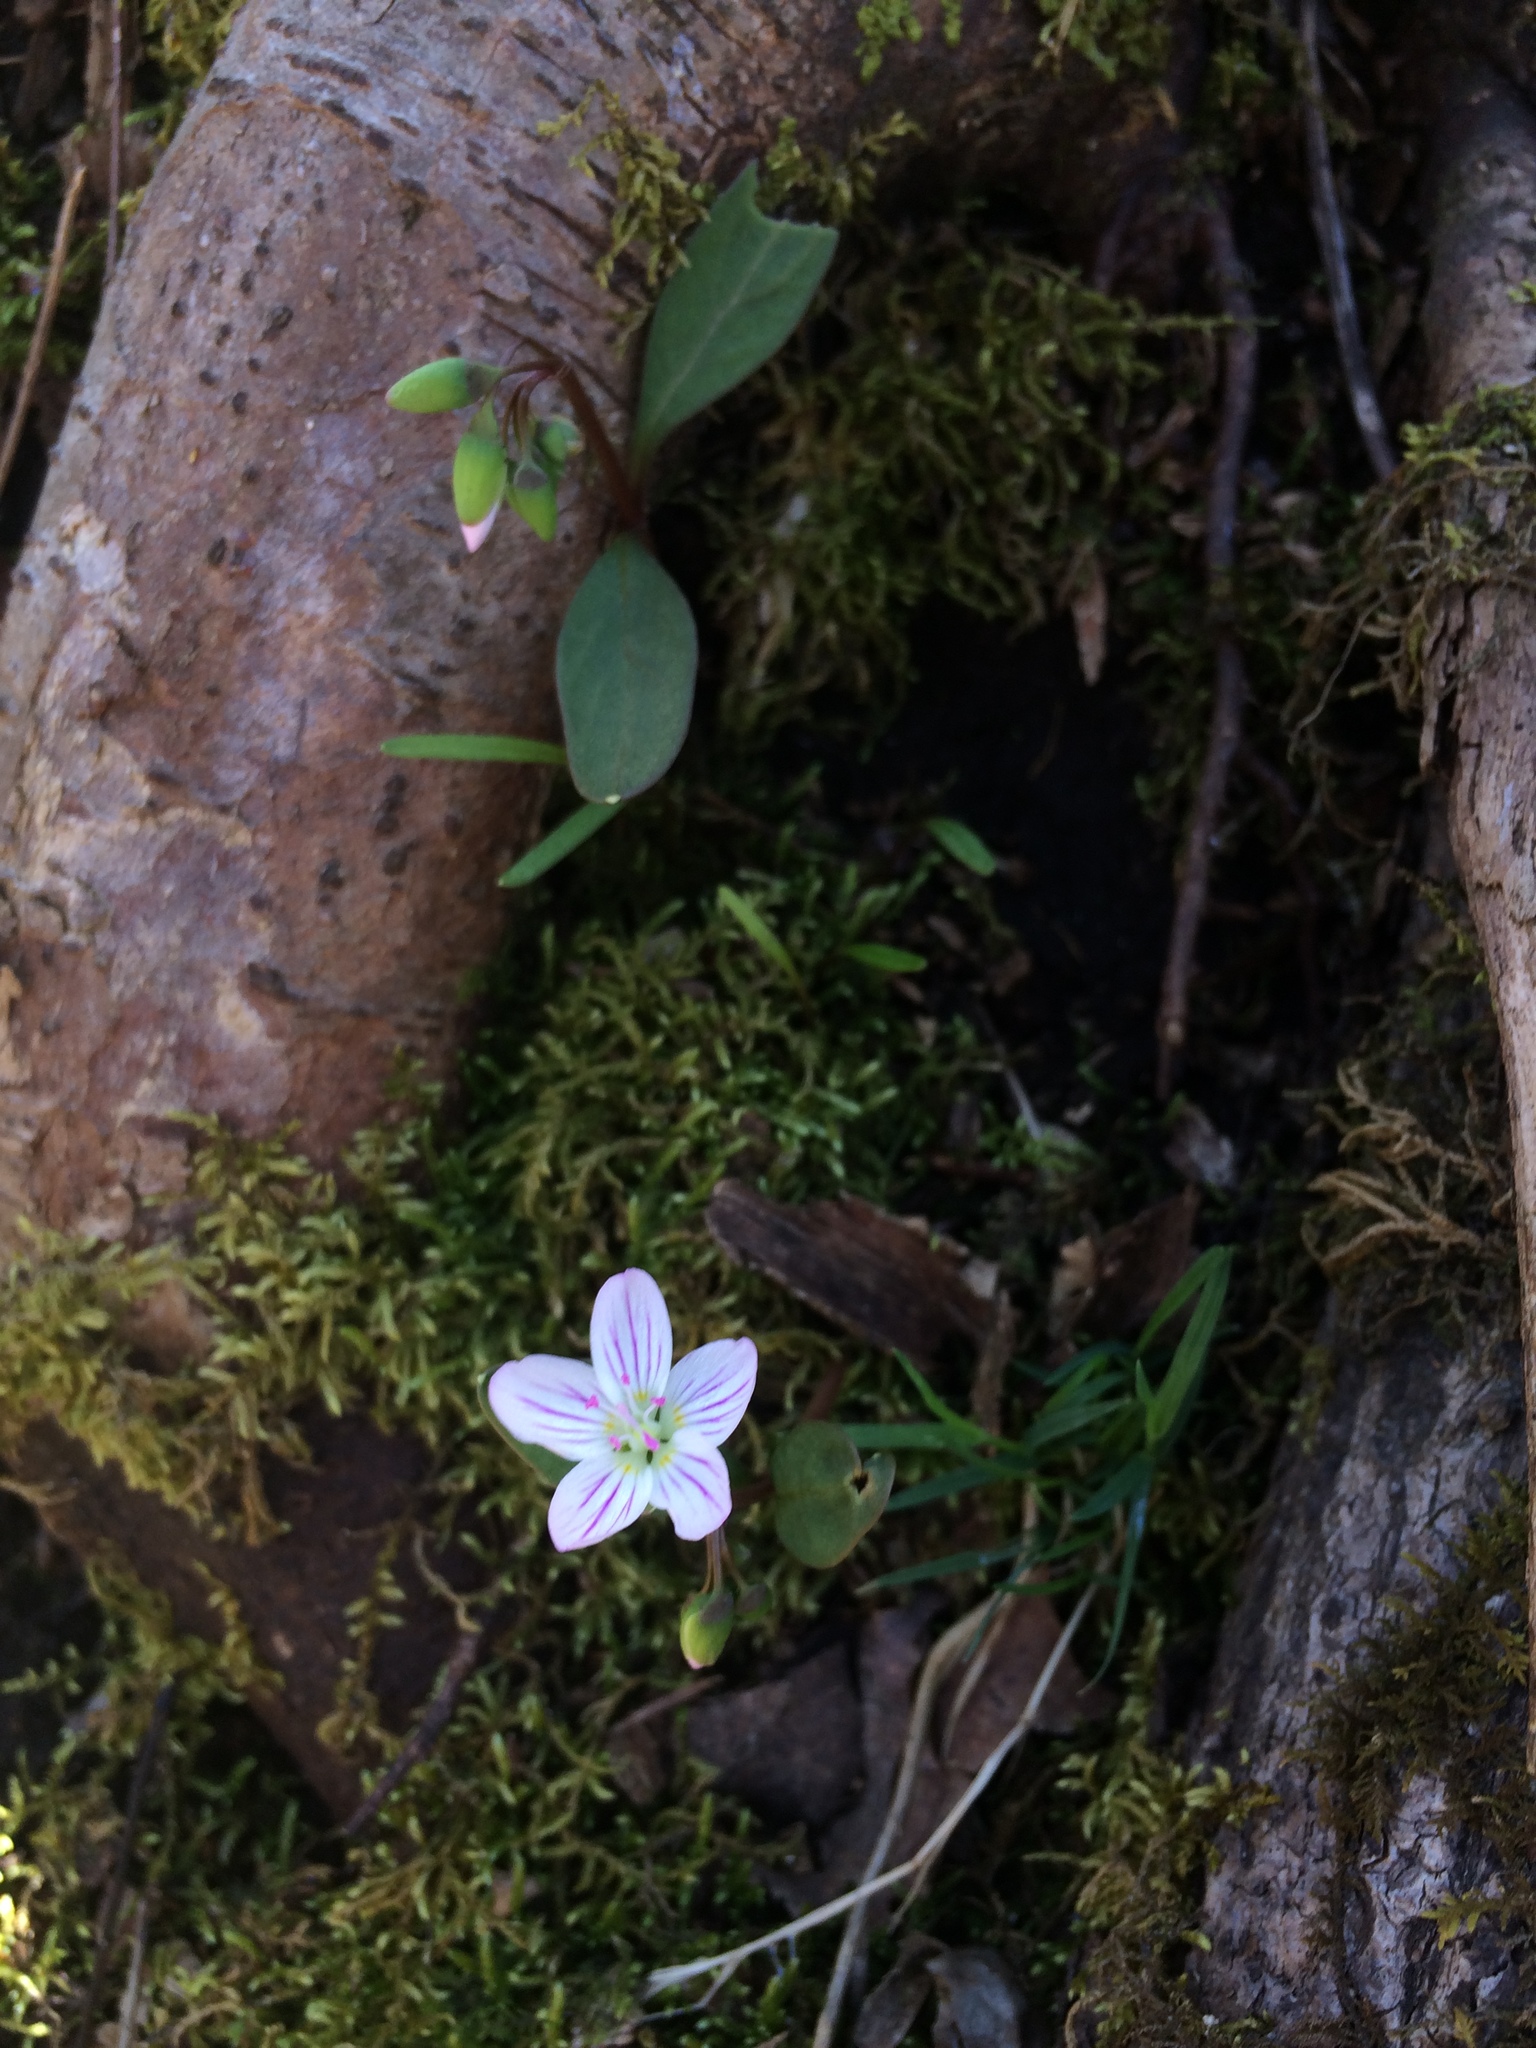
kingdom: Plantae
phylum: Tracheophyta
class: Magnoliopsida
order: Caryophyllales
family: Montiaceae
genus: Claytonia
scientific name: Claytonia caroliniana
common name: Carolina spring beauty
